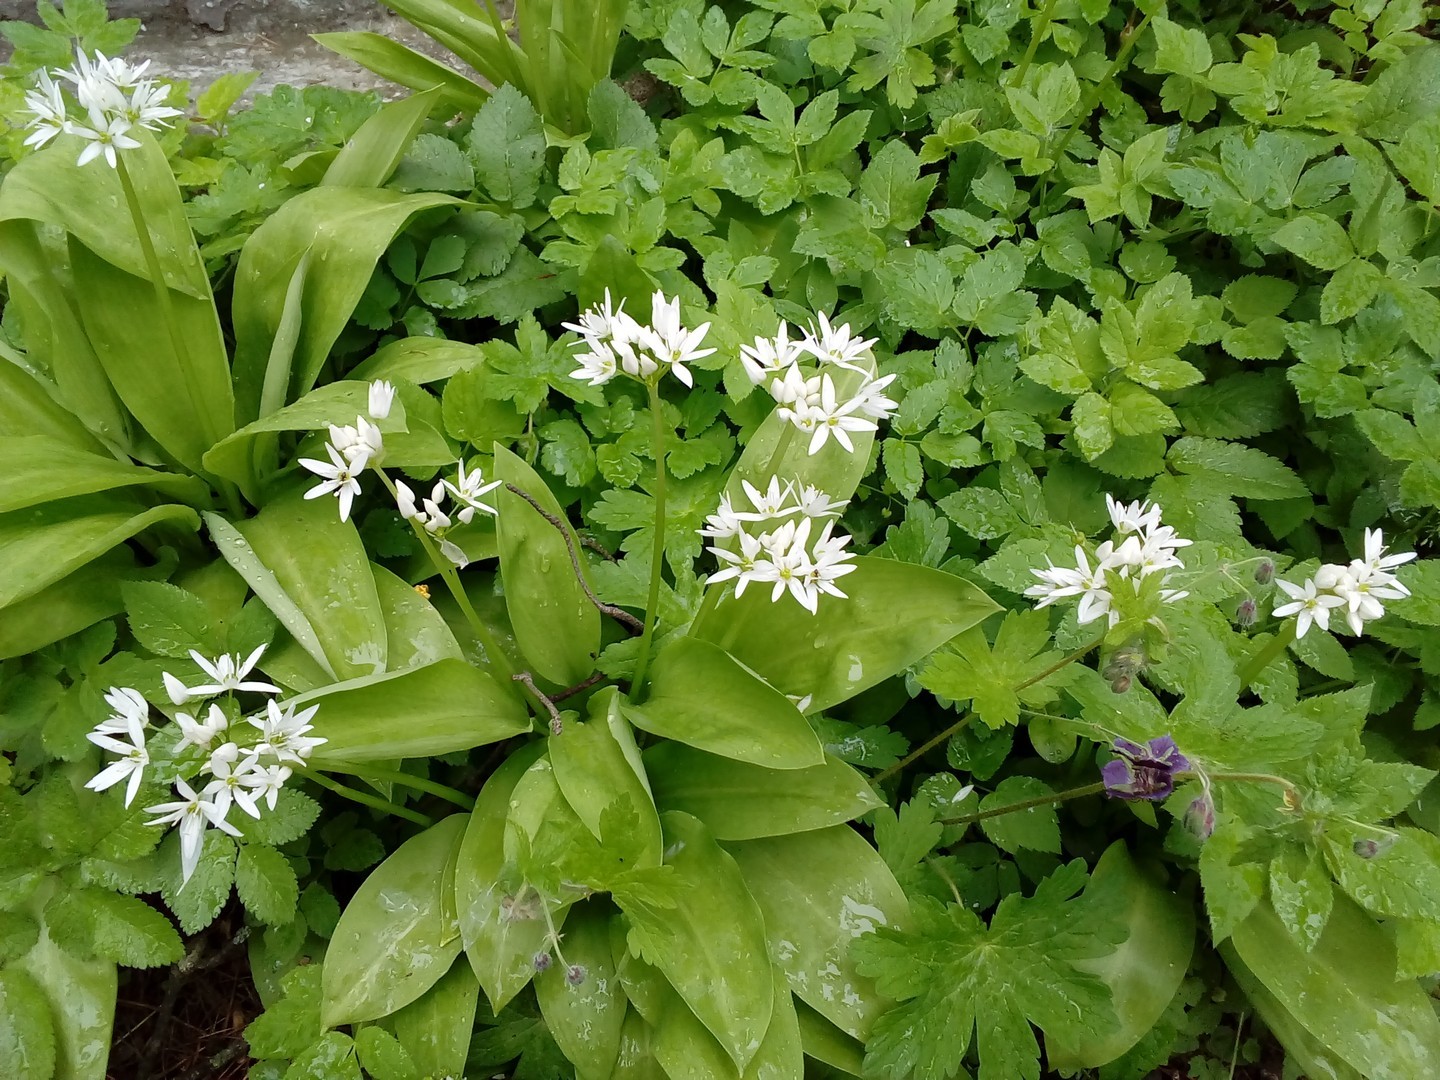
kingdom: Plantae
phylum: Tracheophyta
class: Liliopsida
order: Asparagales
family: Amaryllidaceae
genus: Allium
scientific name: Allium ursinum
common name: Ramsons
